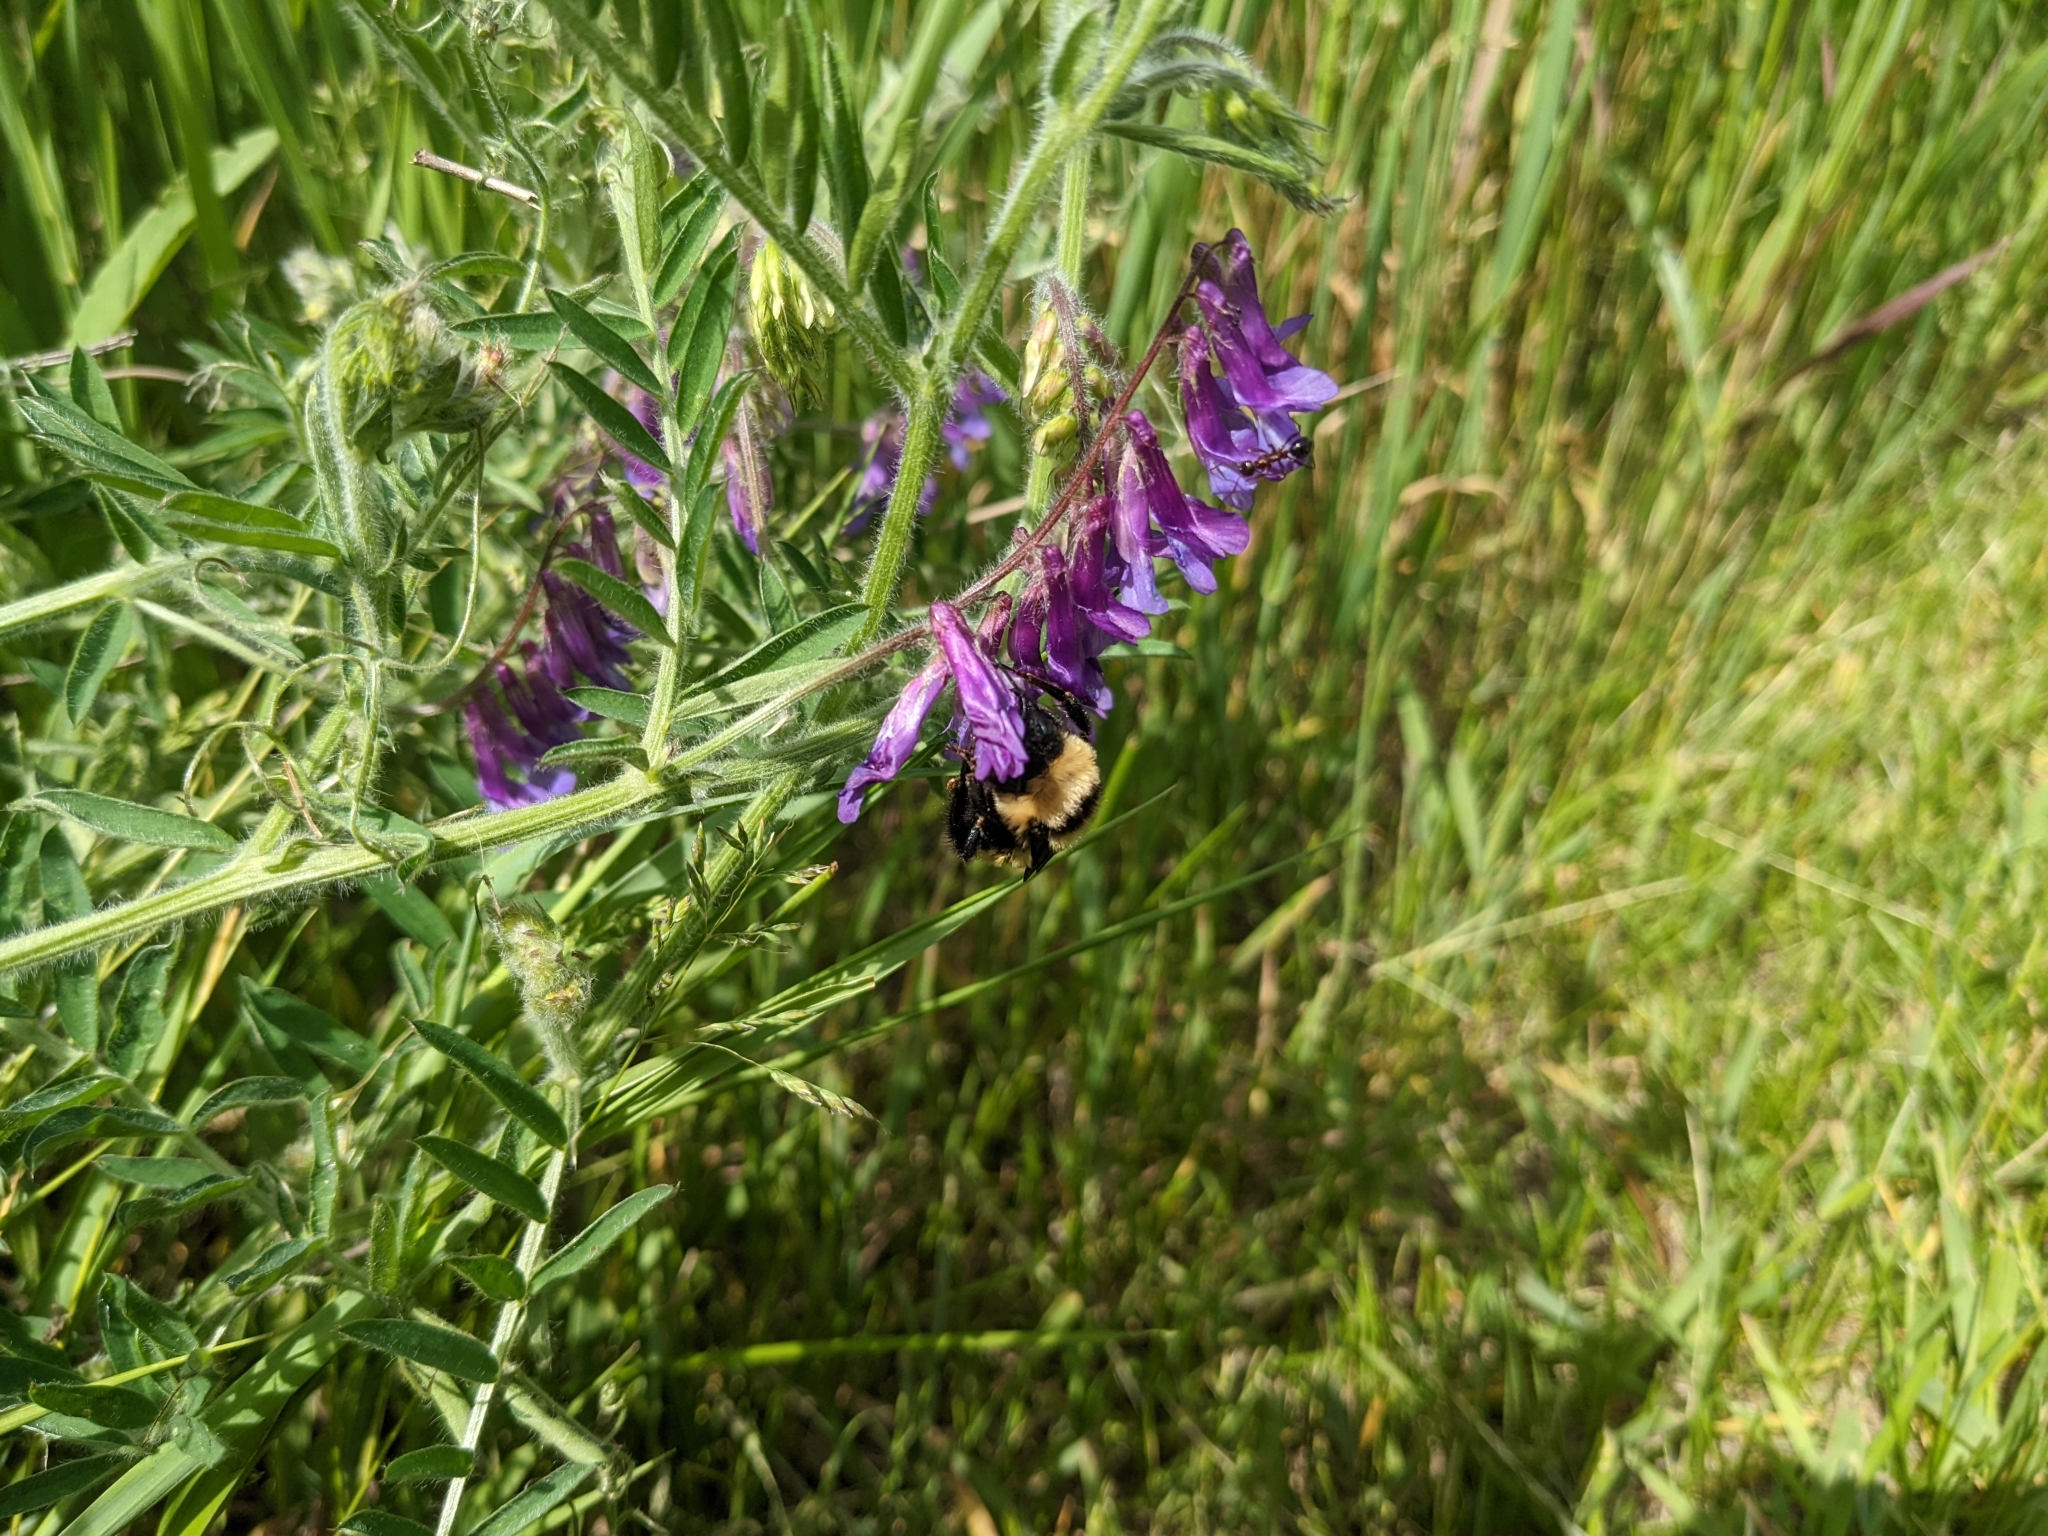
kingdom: Plantae
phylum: Tracheophyta
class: Magnoliopsida
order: Fabales
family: Fabaceae
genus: Vicia
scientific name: Vicia villosa
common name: Fodder vetch
